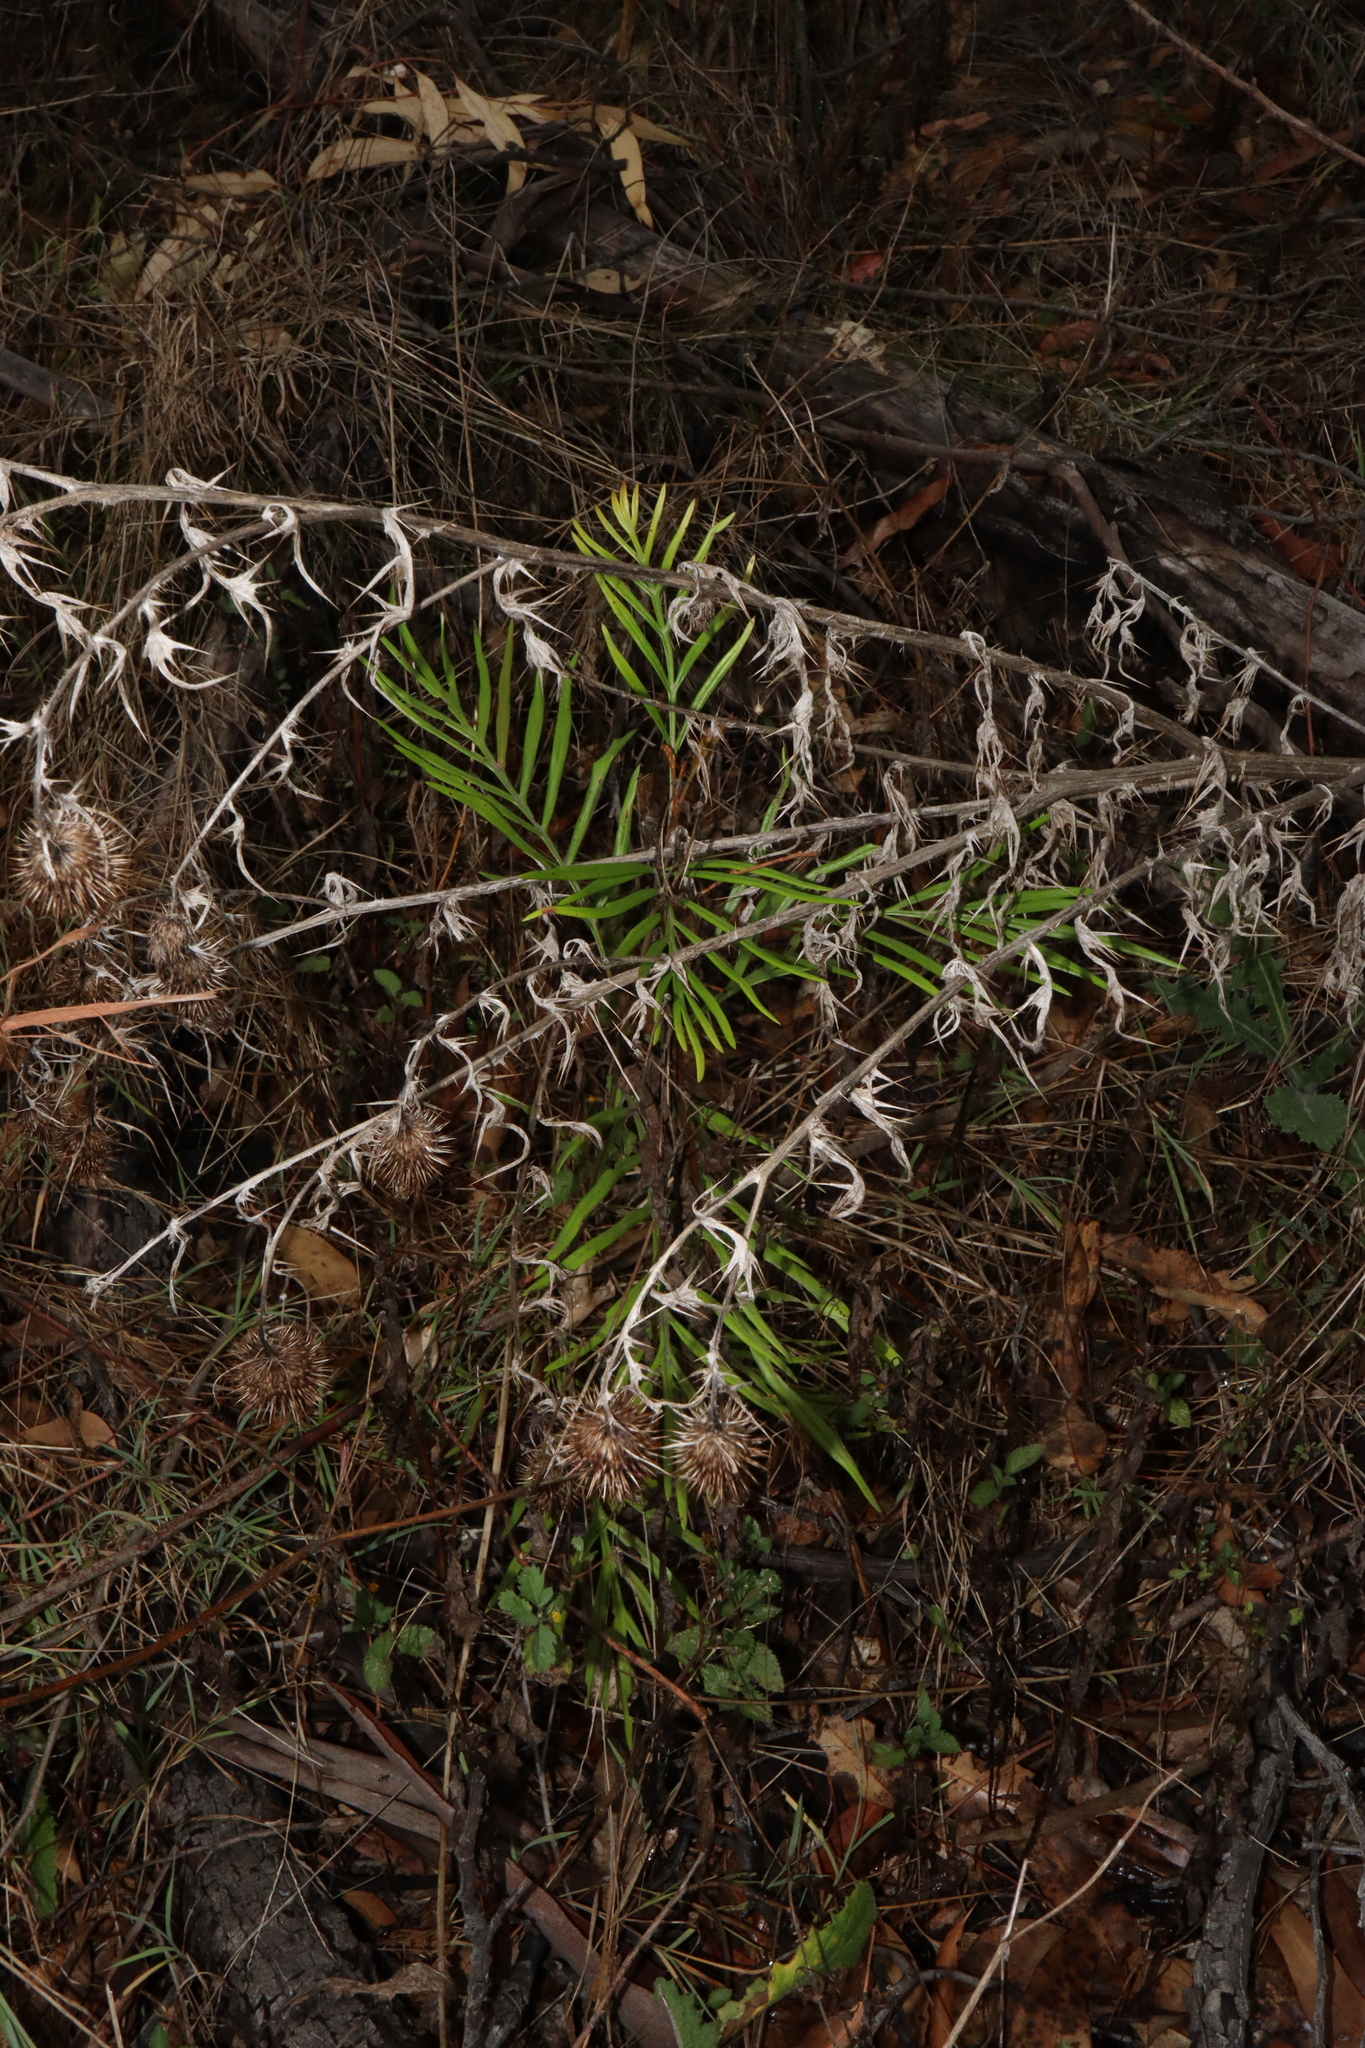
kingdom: Plantae
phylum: Tracheophyta
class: Magnoliopsida
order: Proteales
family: Proteaceae
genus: Grevillea
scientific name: Grevillea robusta
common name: Silkoak
